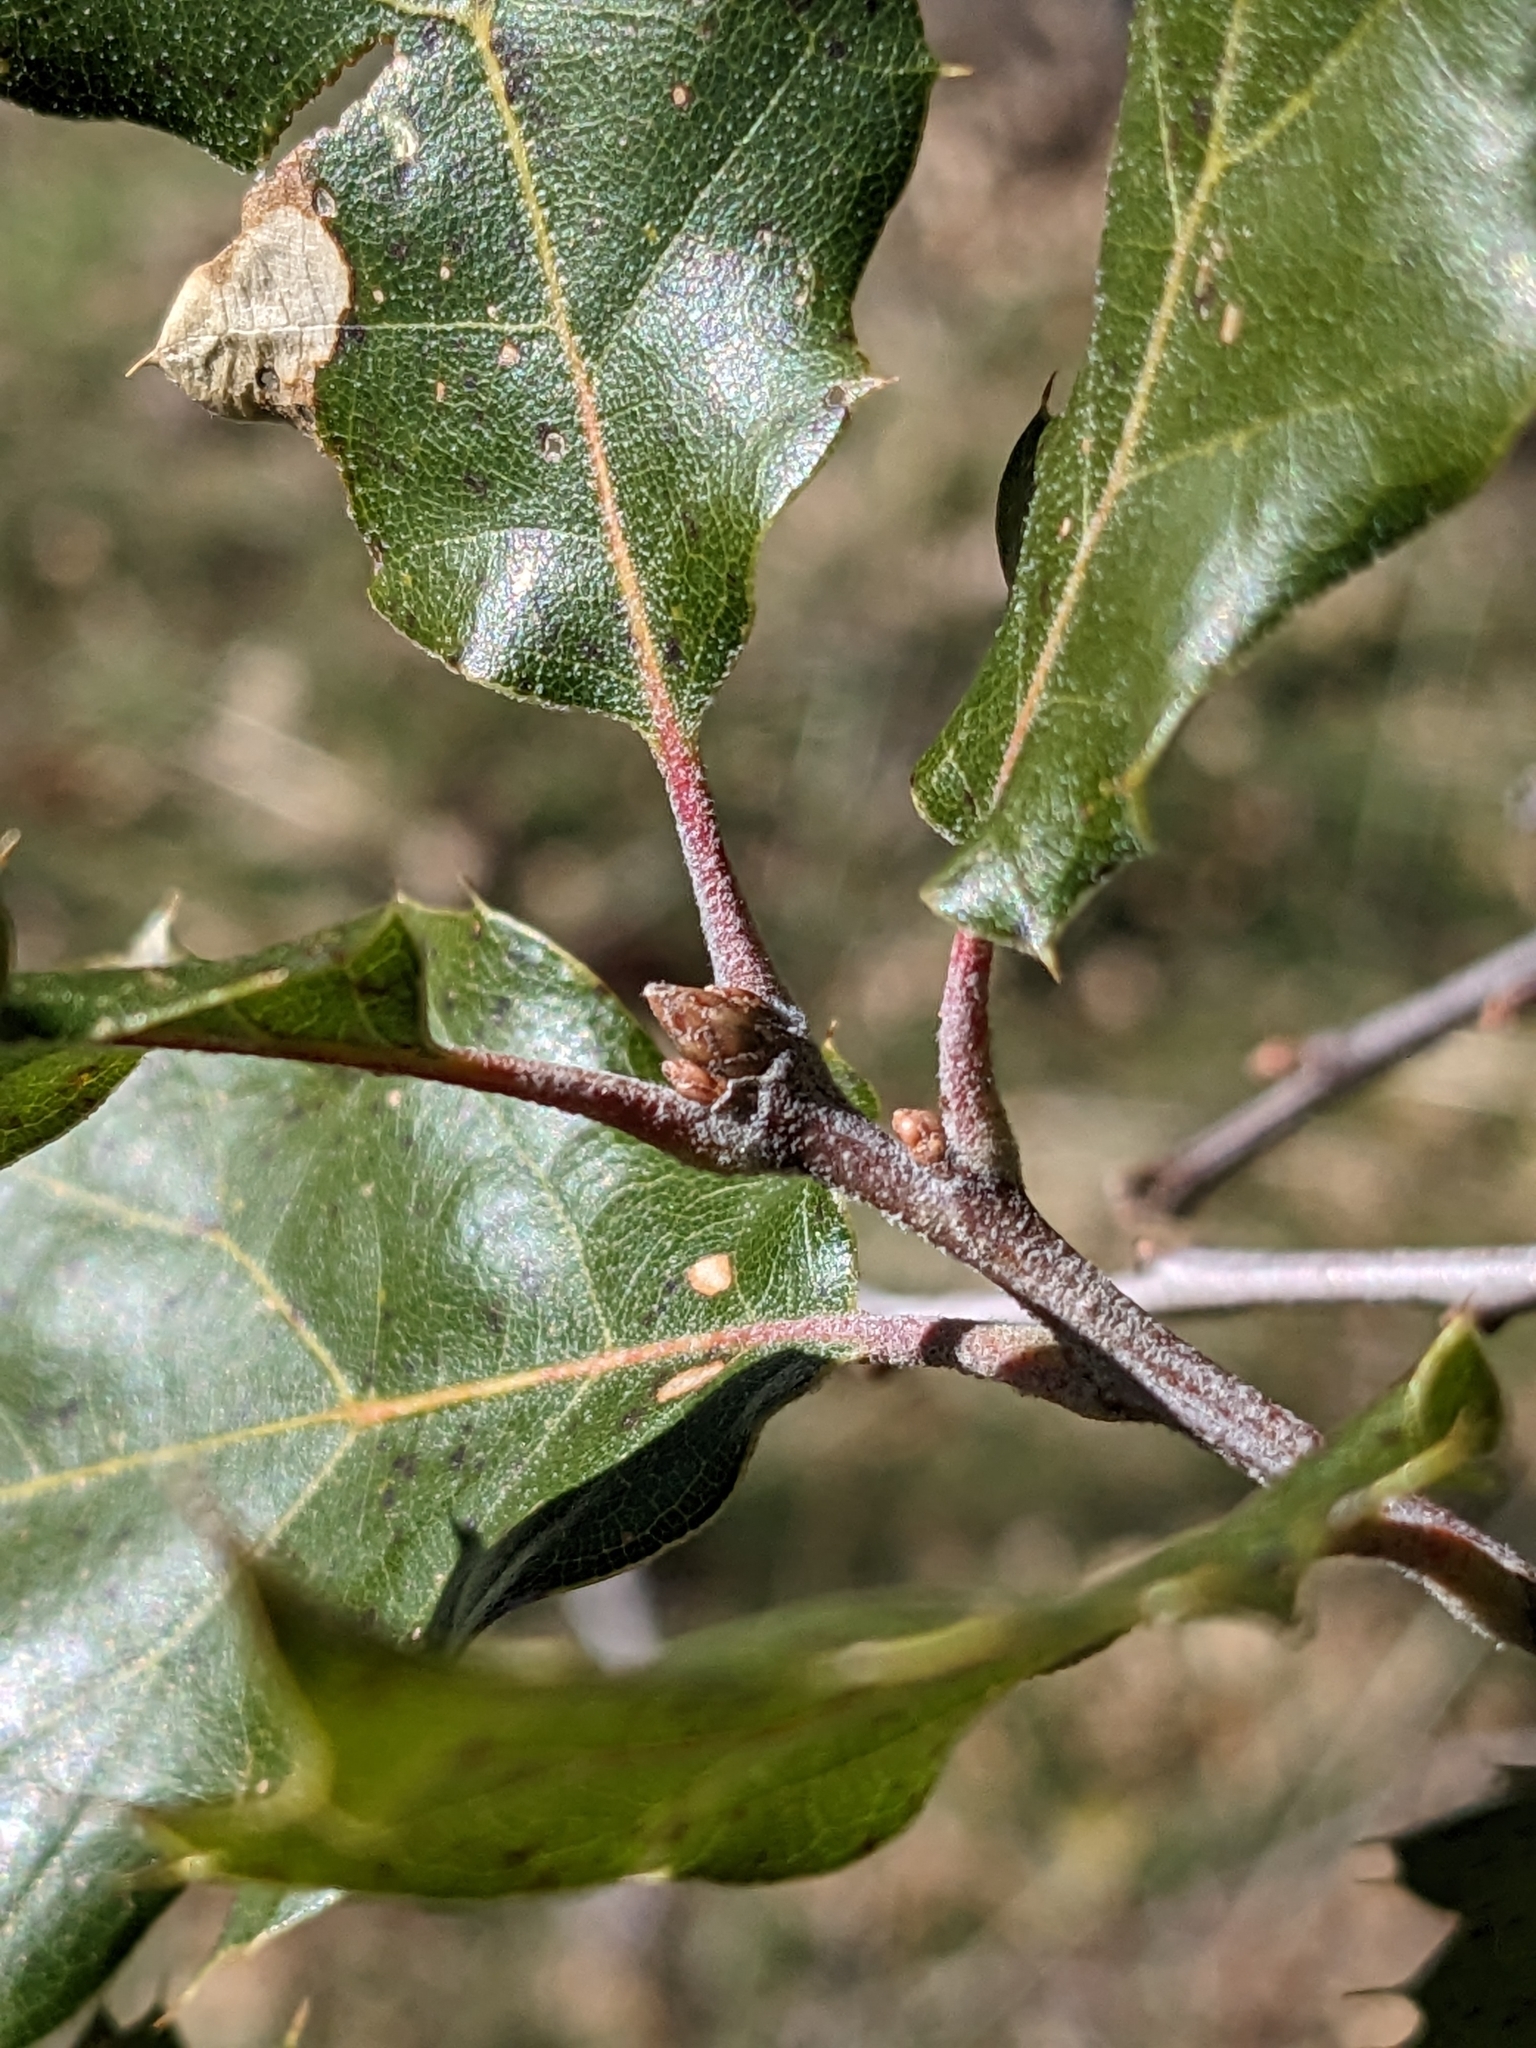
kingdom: Plantae
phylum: Tracheophyta
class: Magnoliopsida
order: Fagales
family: Fagaceae
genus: Quercus
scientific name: Quercus ganderi
